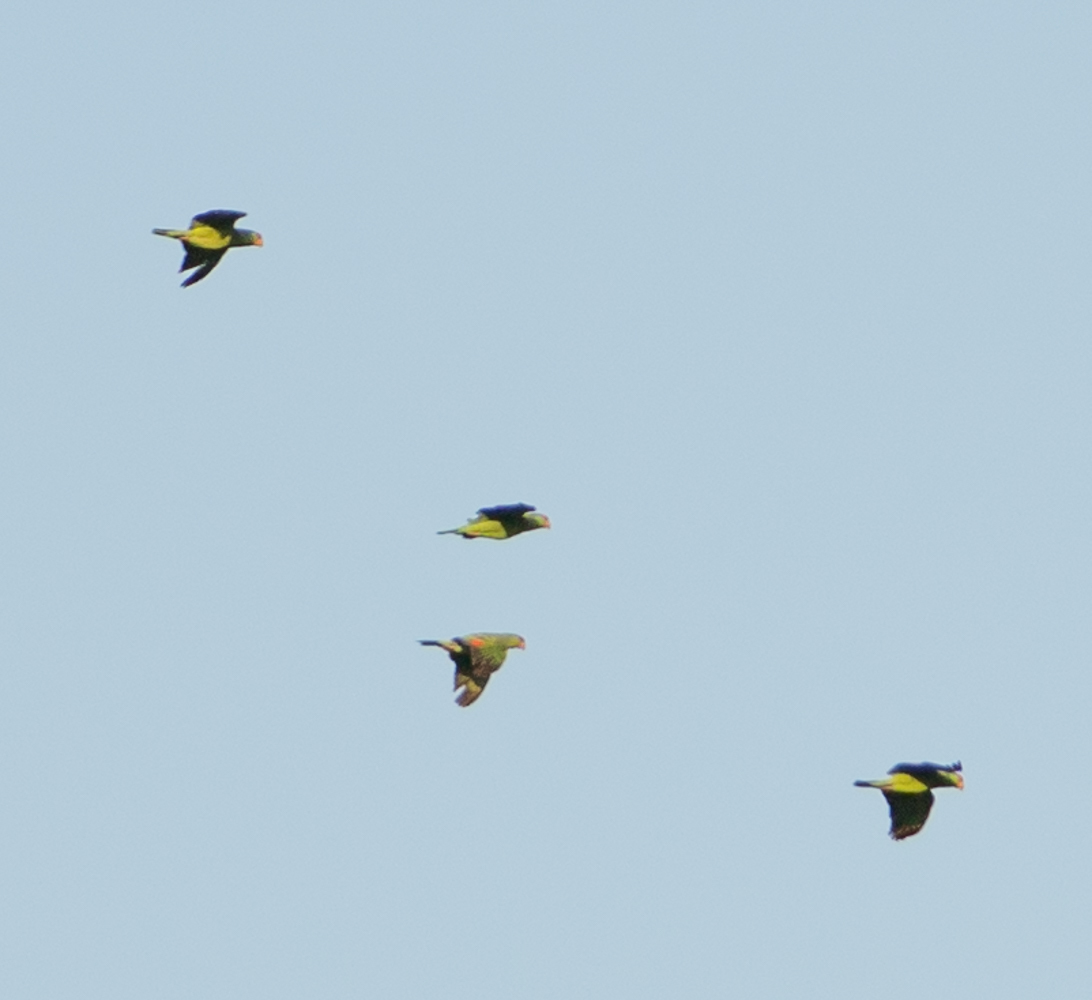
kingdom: Animalia
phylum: Chordata
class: Aves
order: Psittaciformes
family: Psittacidae
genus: Amazona
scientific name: Amazona
